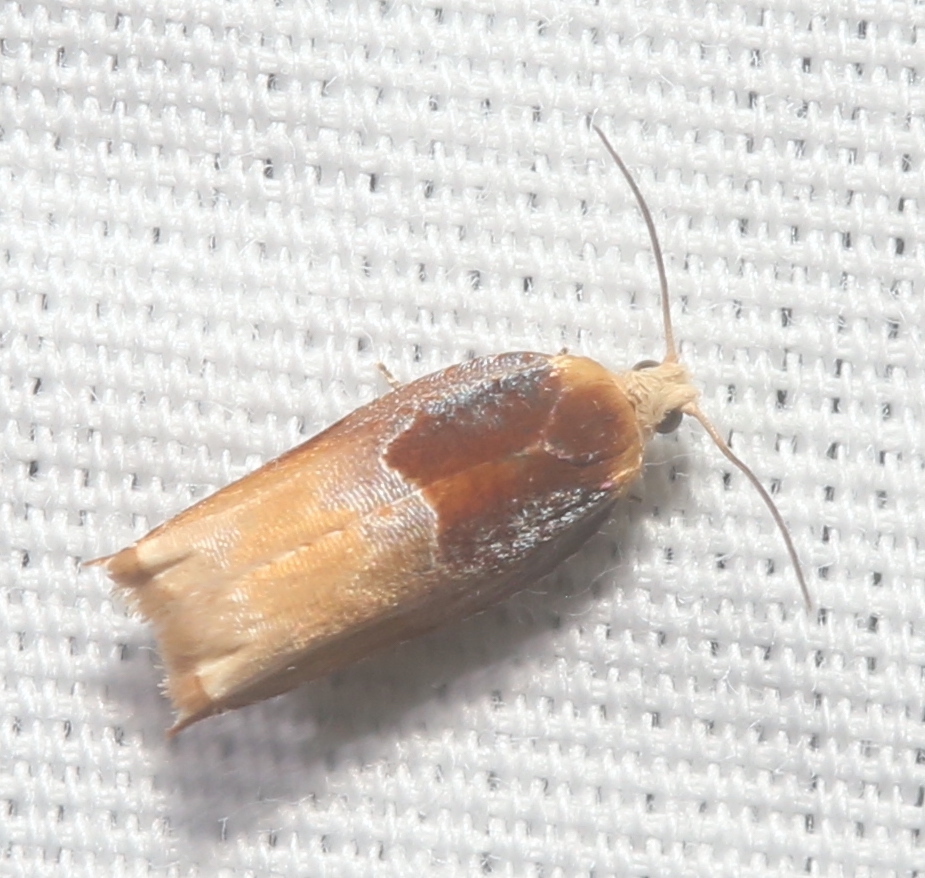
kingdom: Animalia
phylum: Arthropoda
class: Insecta
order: Lepidoptera
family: Tortricidae
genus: Ancylis
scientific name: Ancylis divisana
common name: Two-toned ancylis moth
